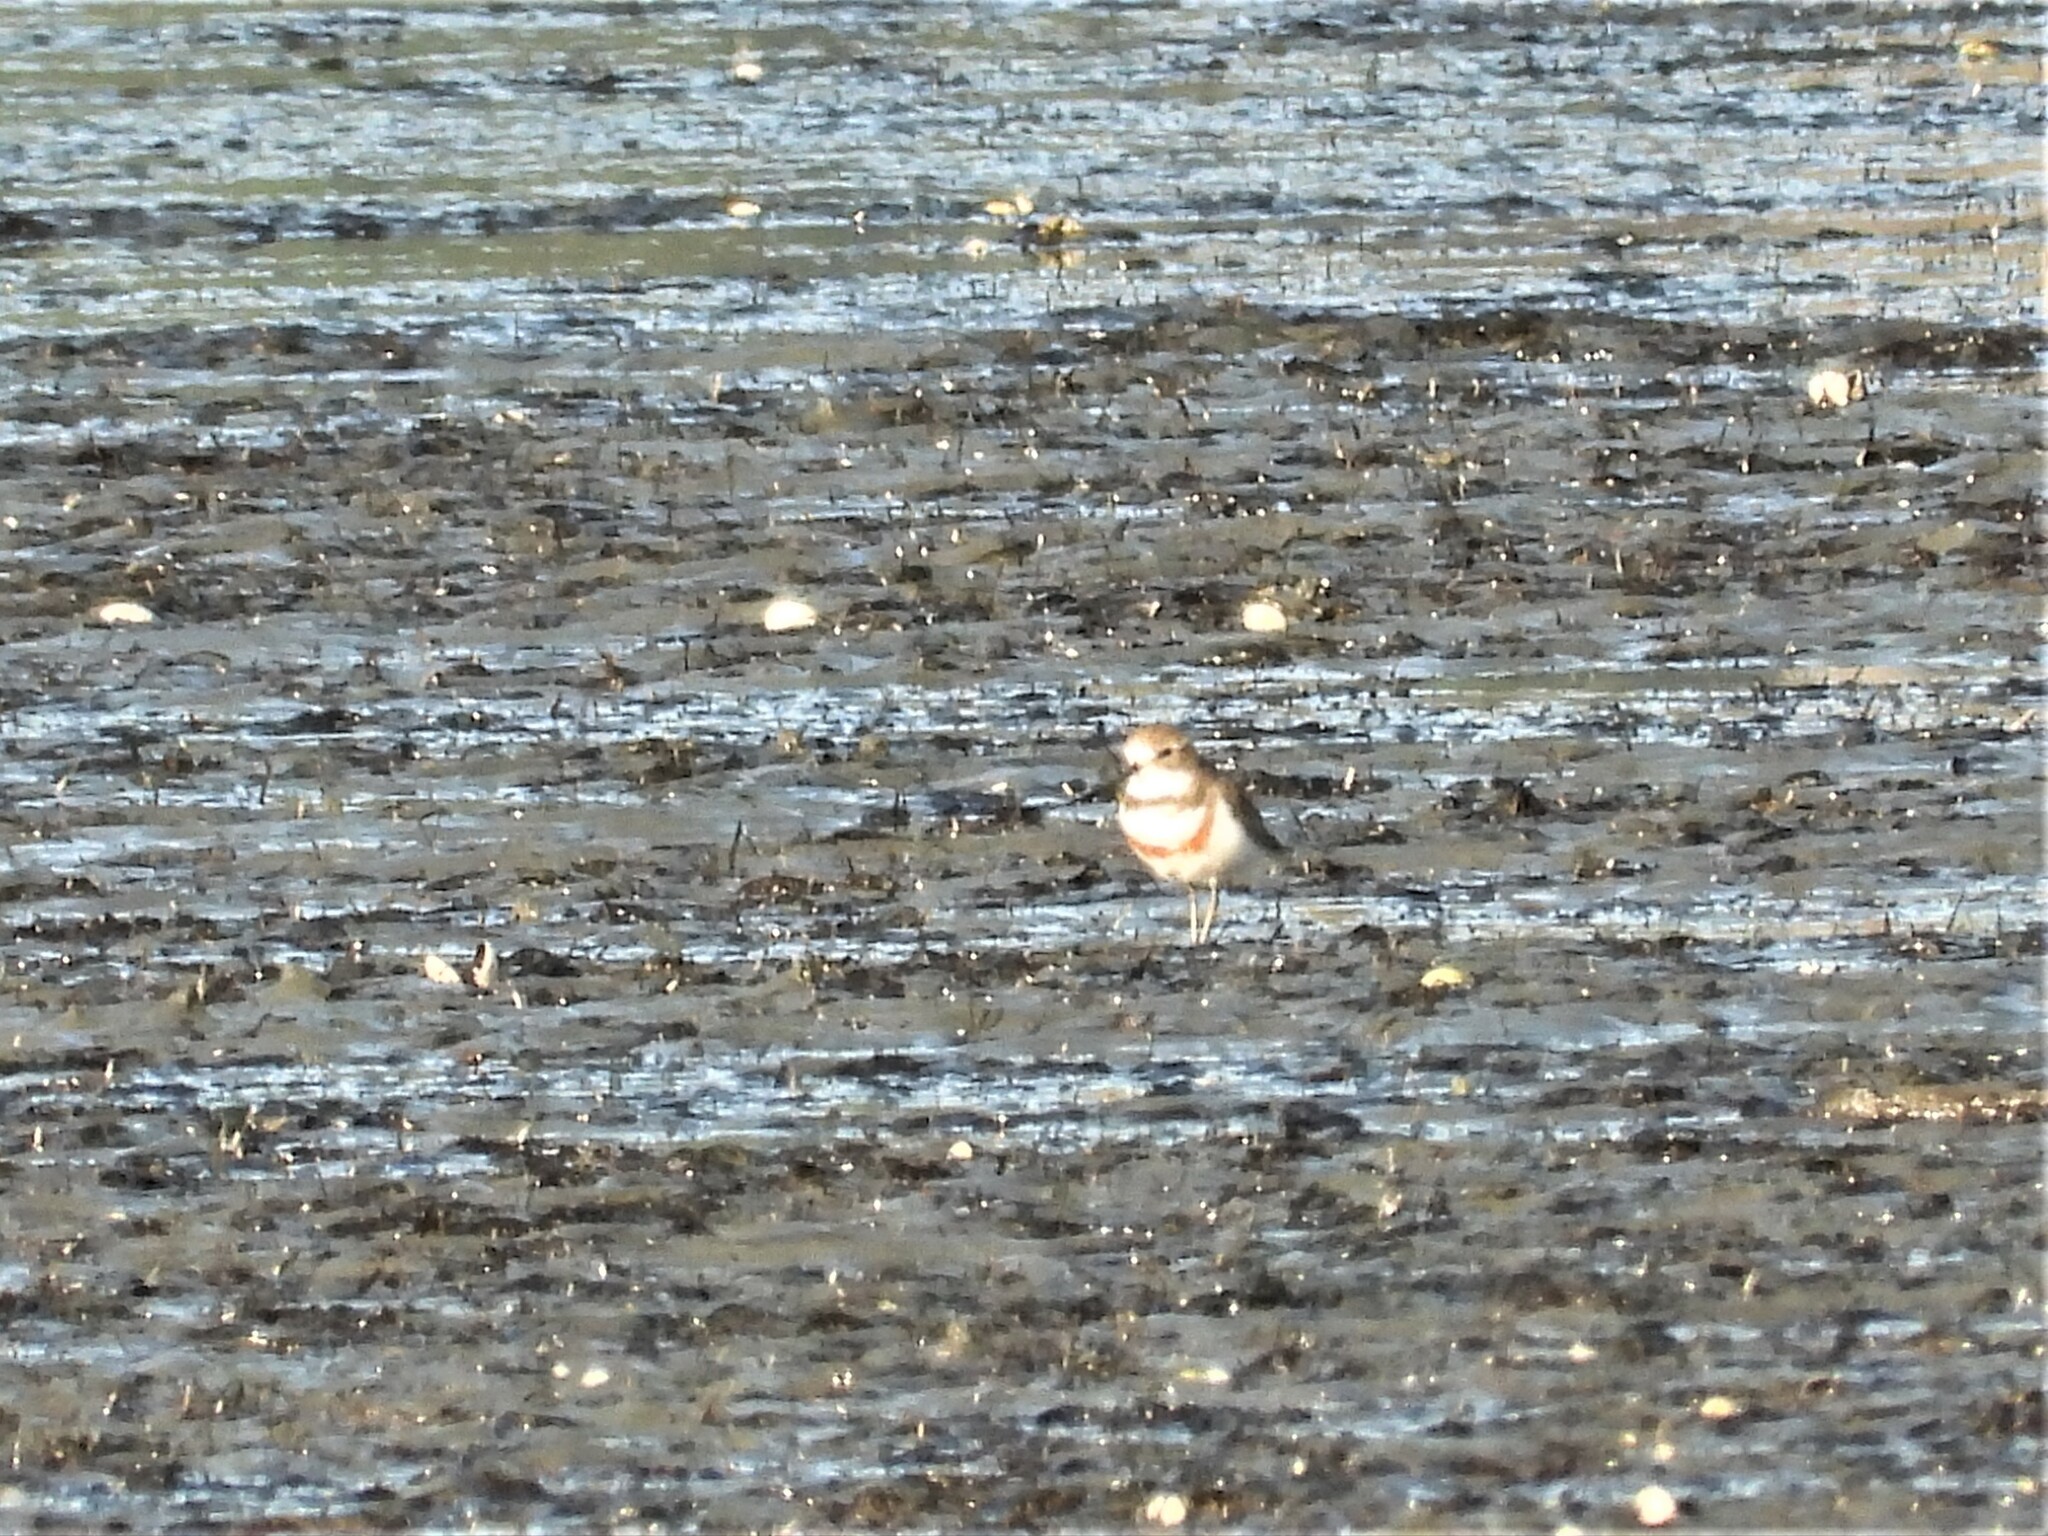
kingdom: Animalia
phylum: Chordata
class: Aves
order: Charadriiformes
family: Charadriidae
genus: Anarhynchus
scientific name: Anarhynchus
